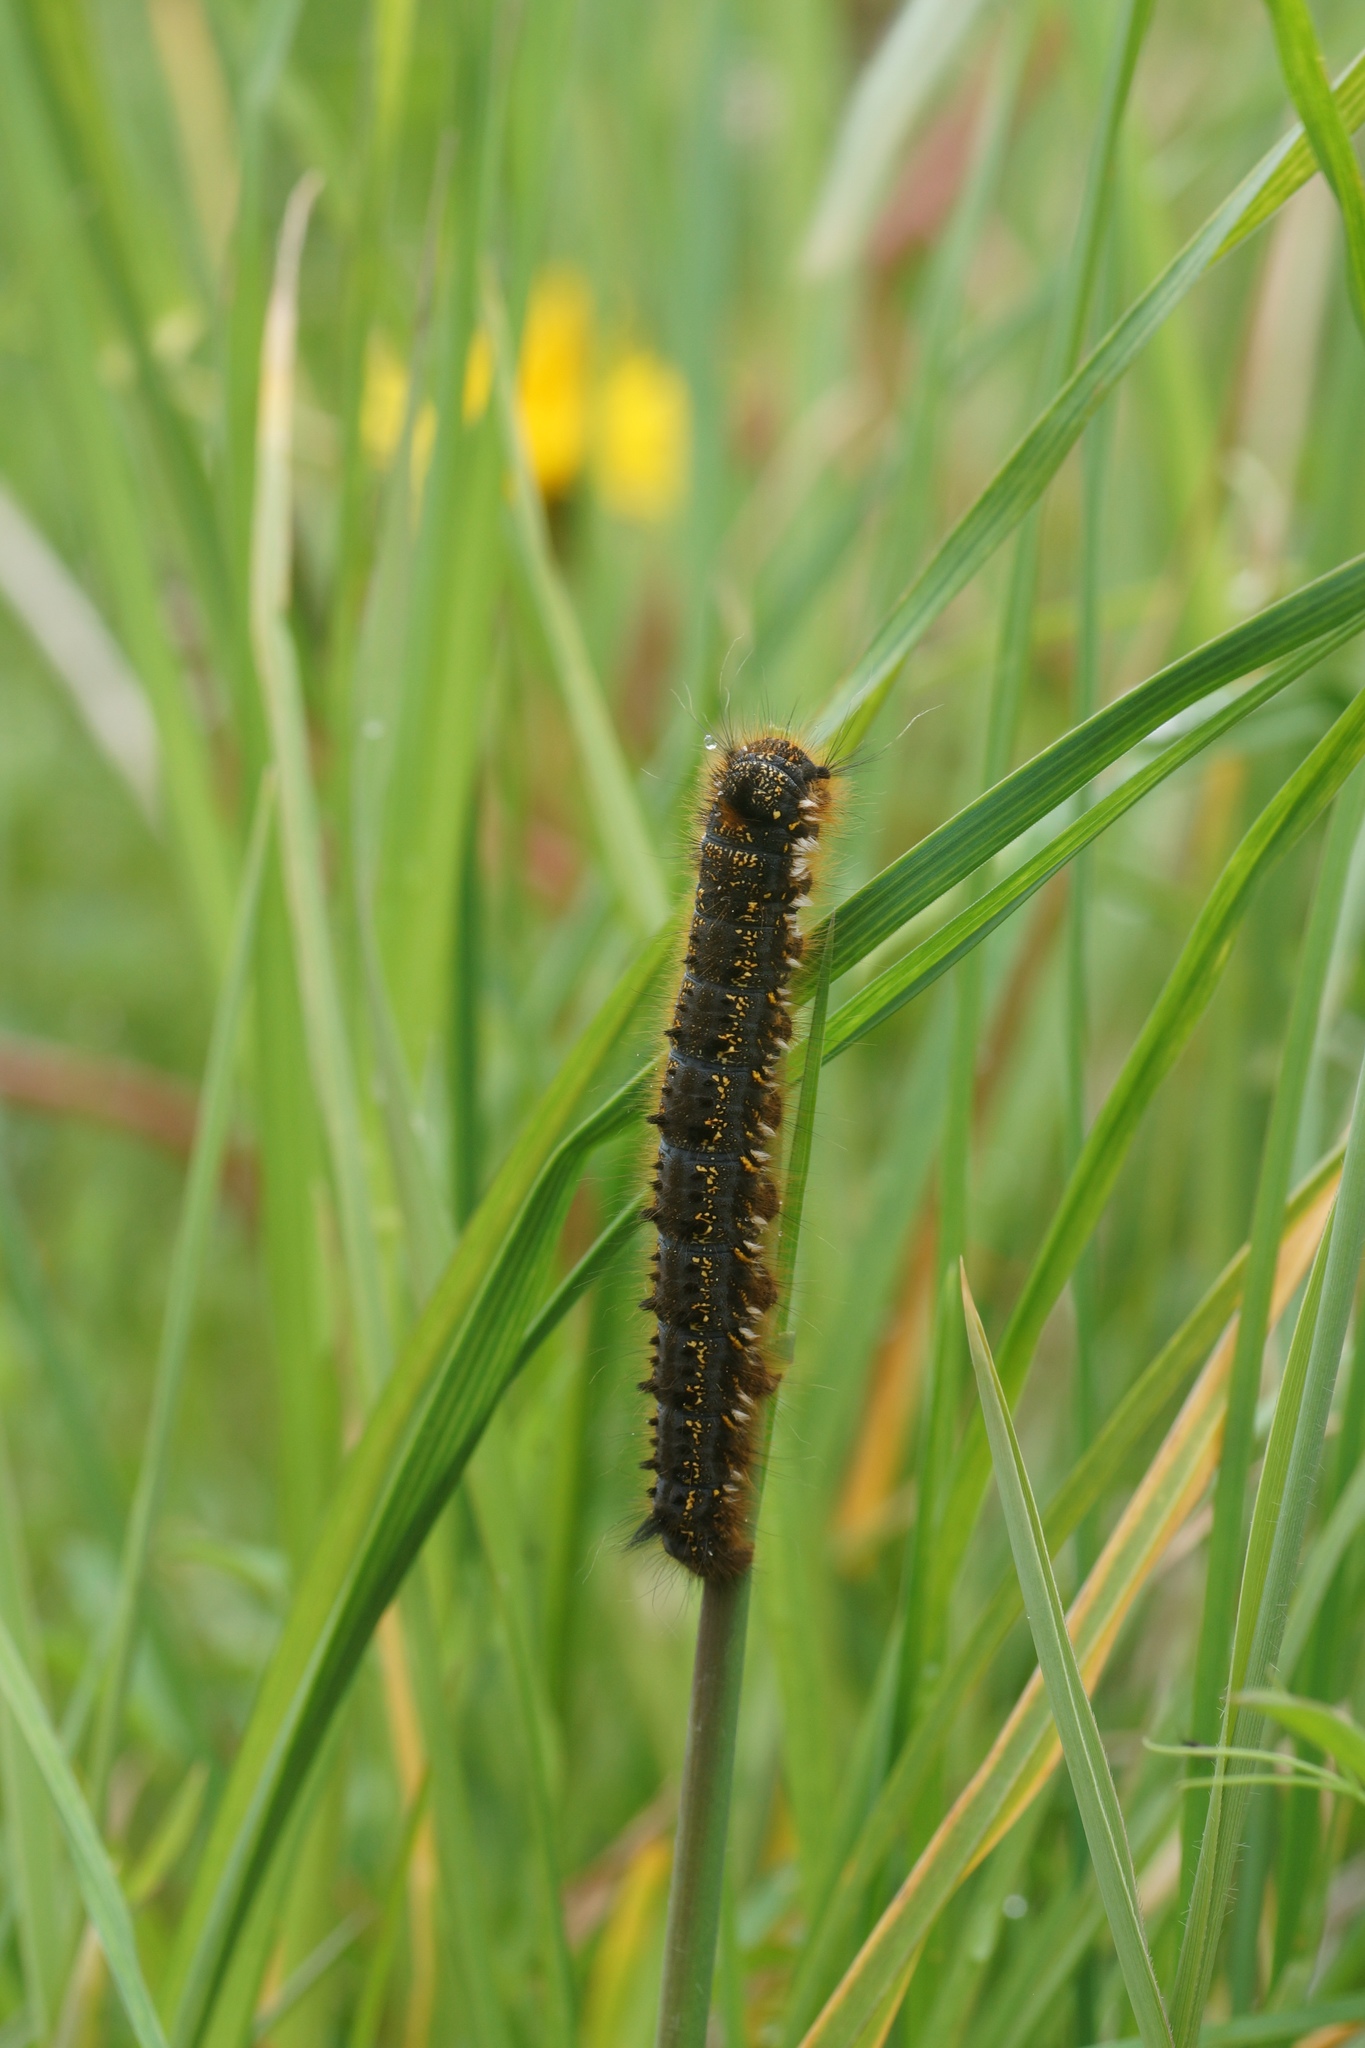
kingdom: Animalia
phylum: Arthropoda
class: Insecta
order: Lepidoptera
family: Lasiocampidae
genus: Euthrix
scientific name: Euthrix potatoria
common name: Drinker
